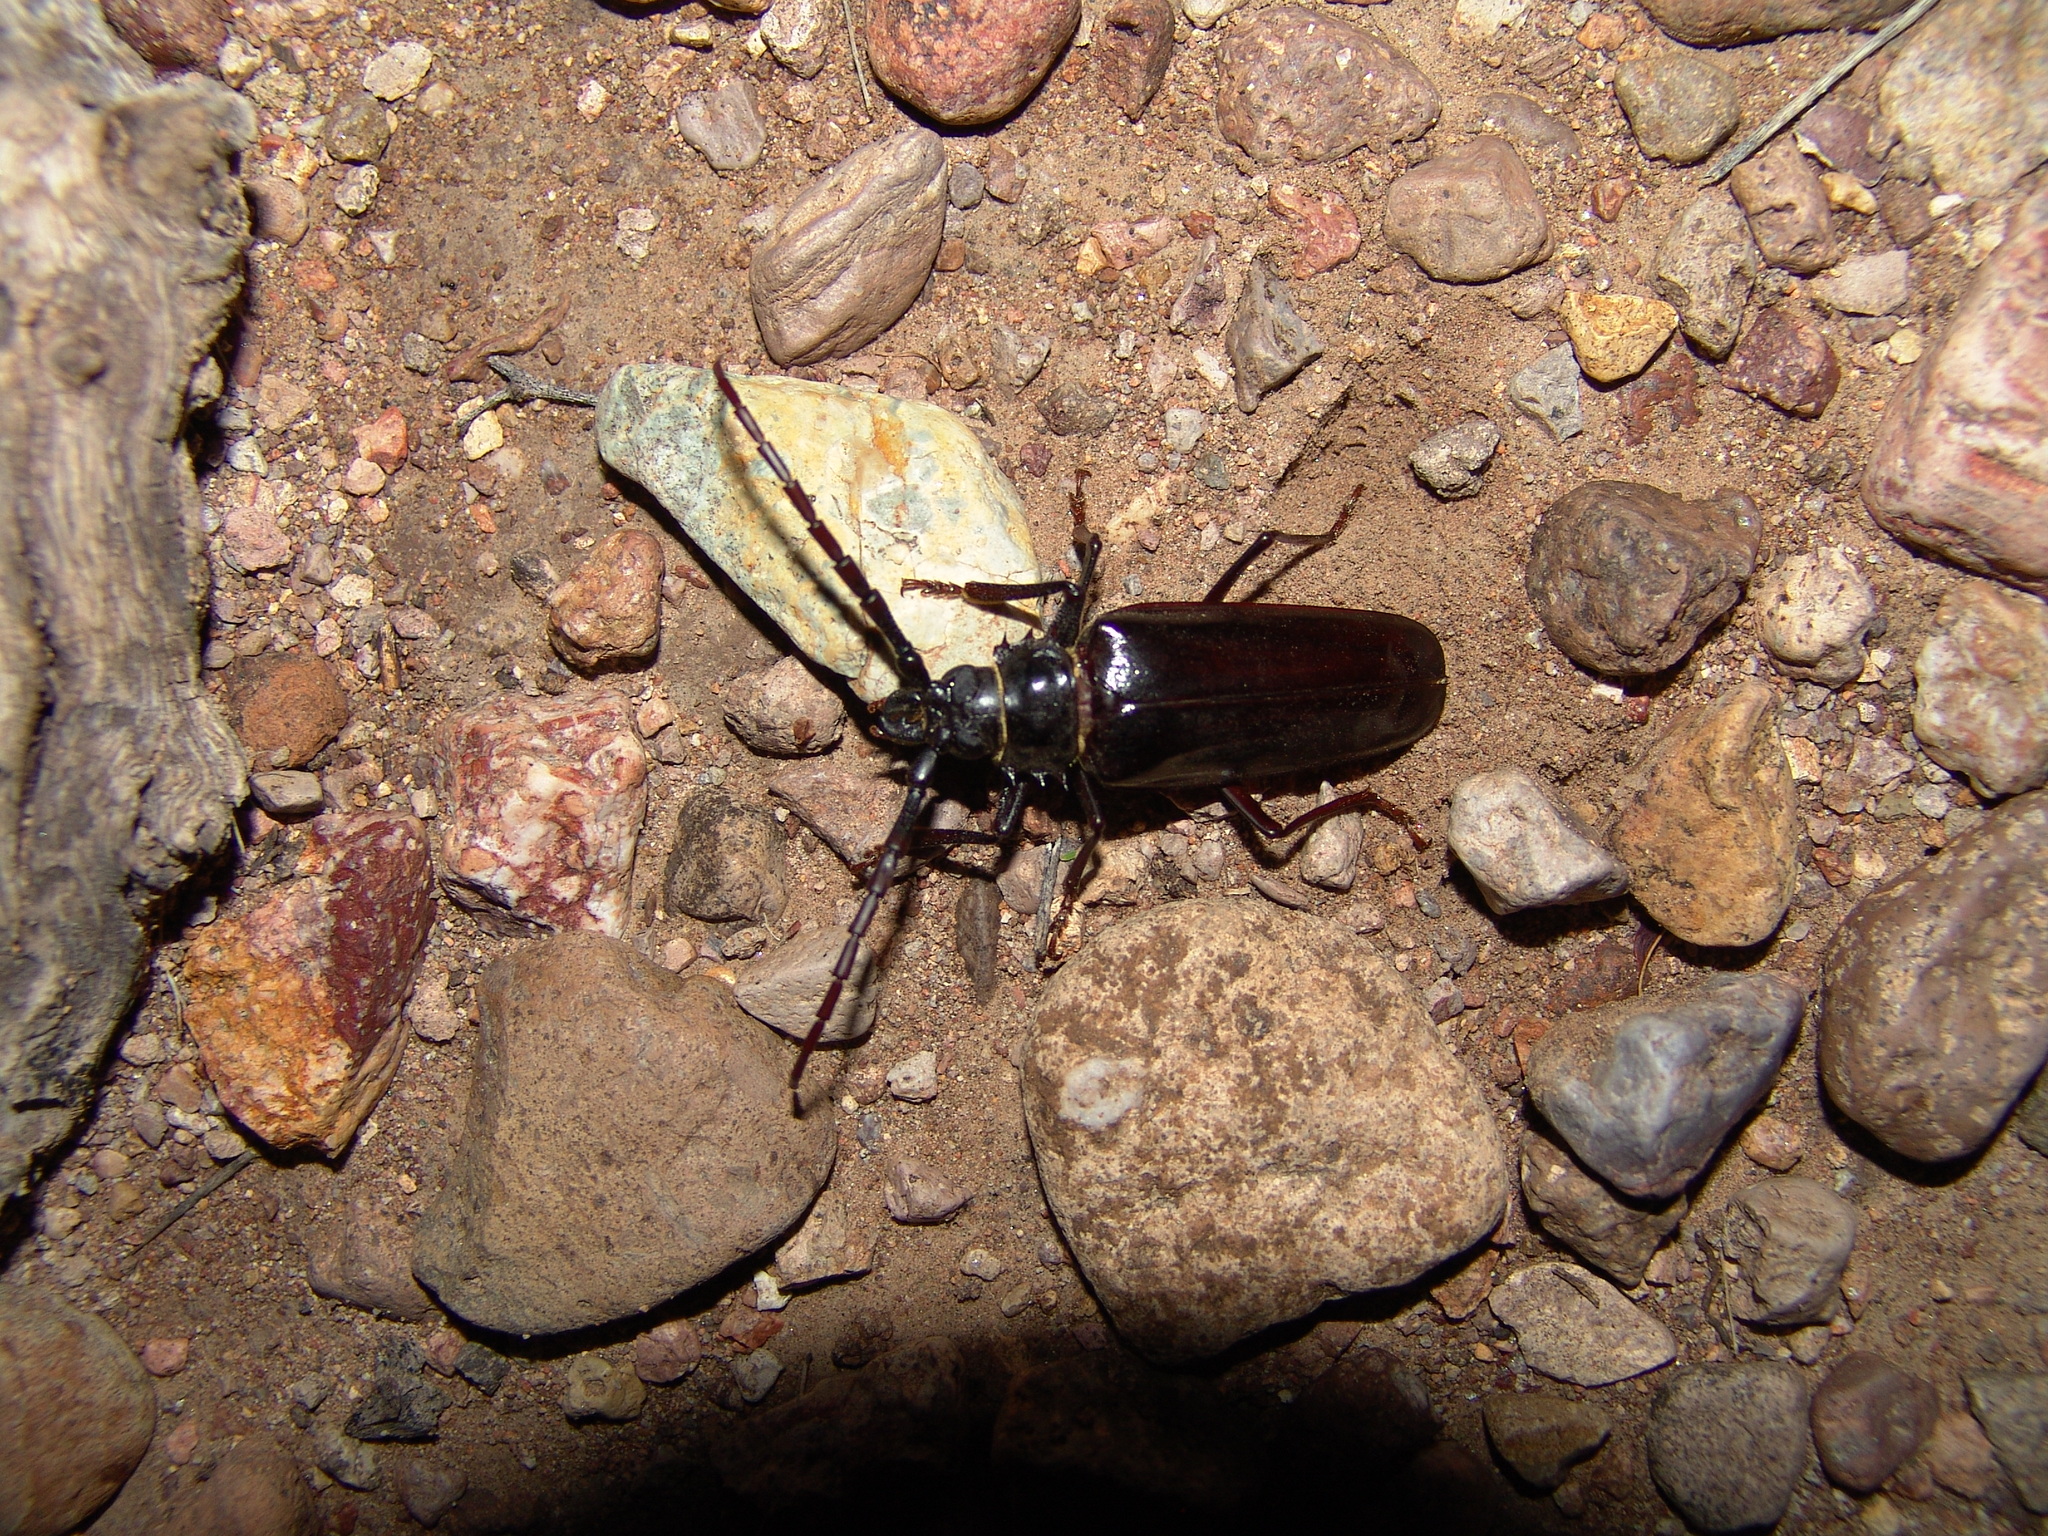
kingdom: Animalia
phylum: Arthropoda
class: Insecta
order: Coleoptera
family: Cerambycidae
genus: Derobrachus
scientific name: Derobrachus hovorei
